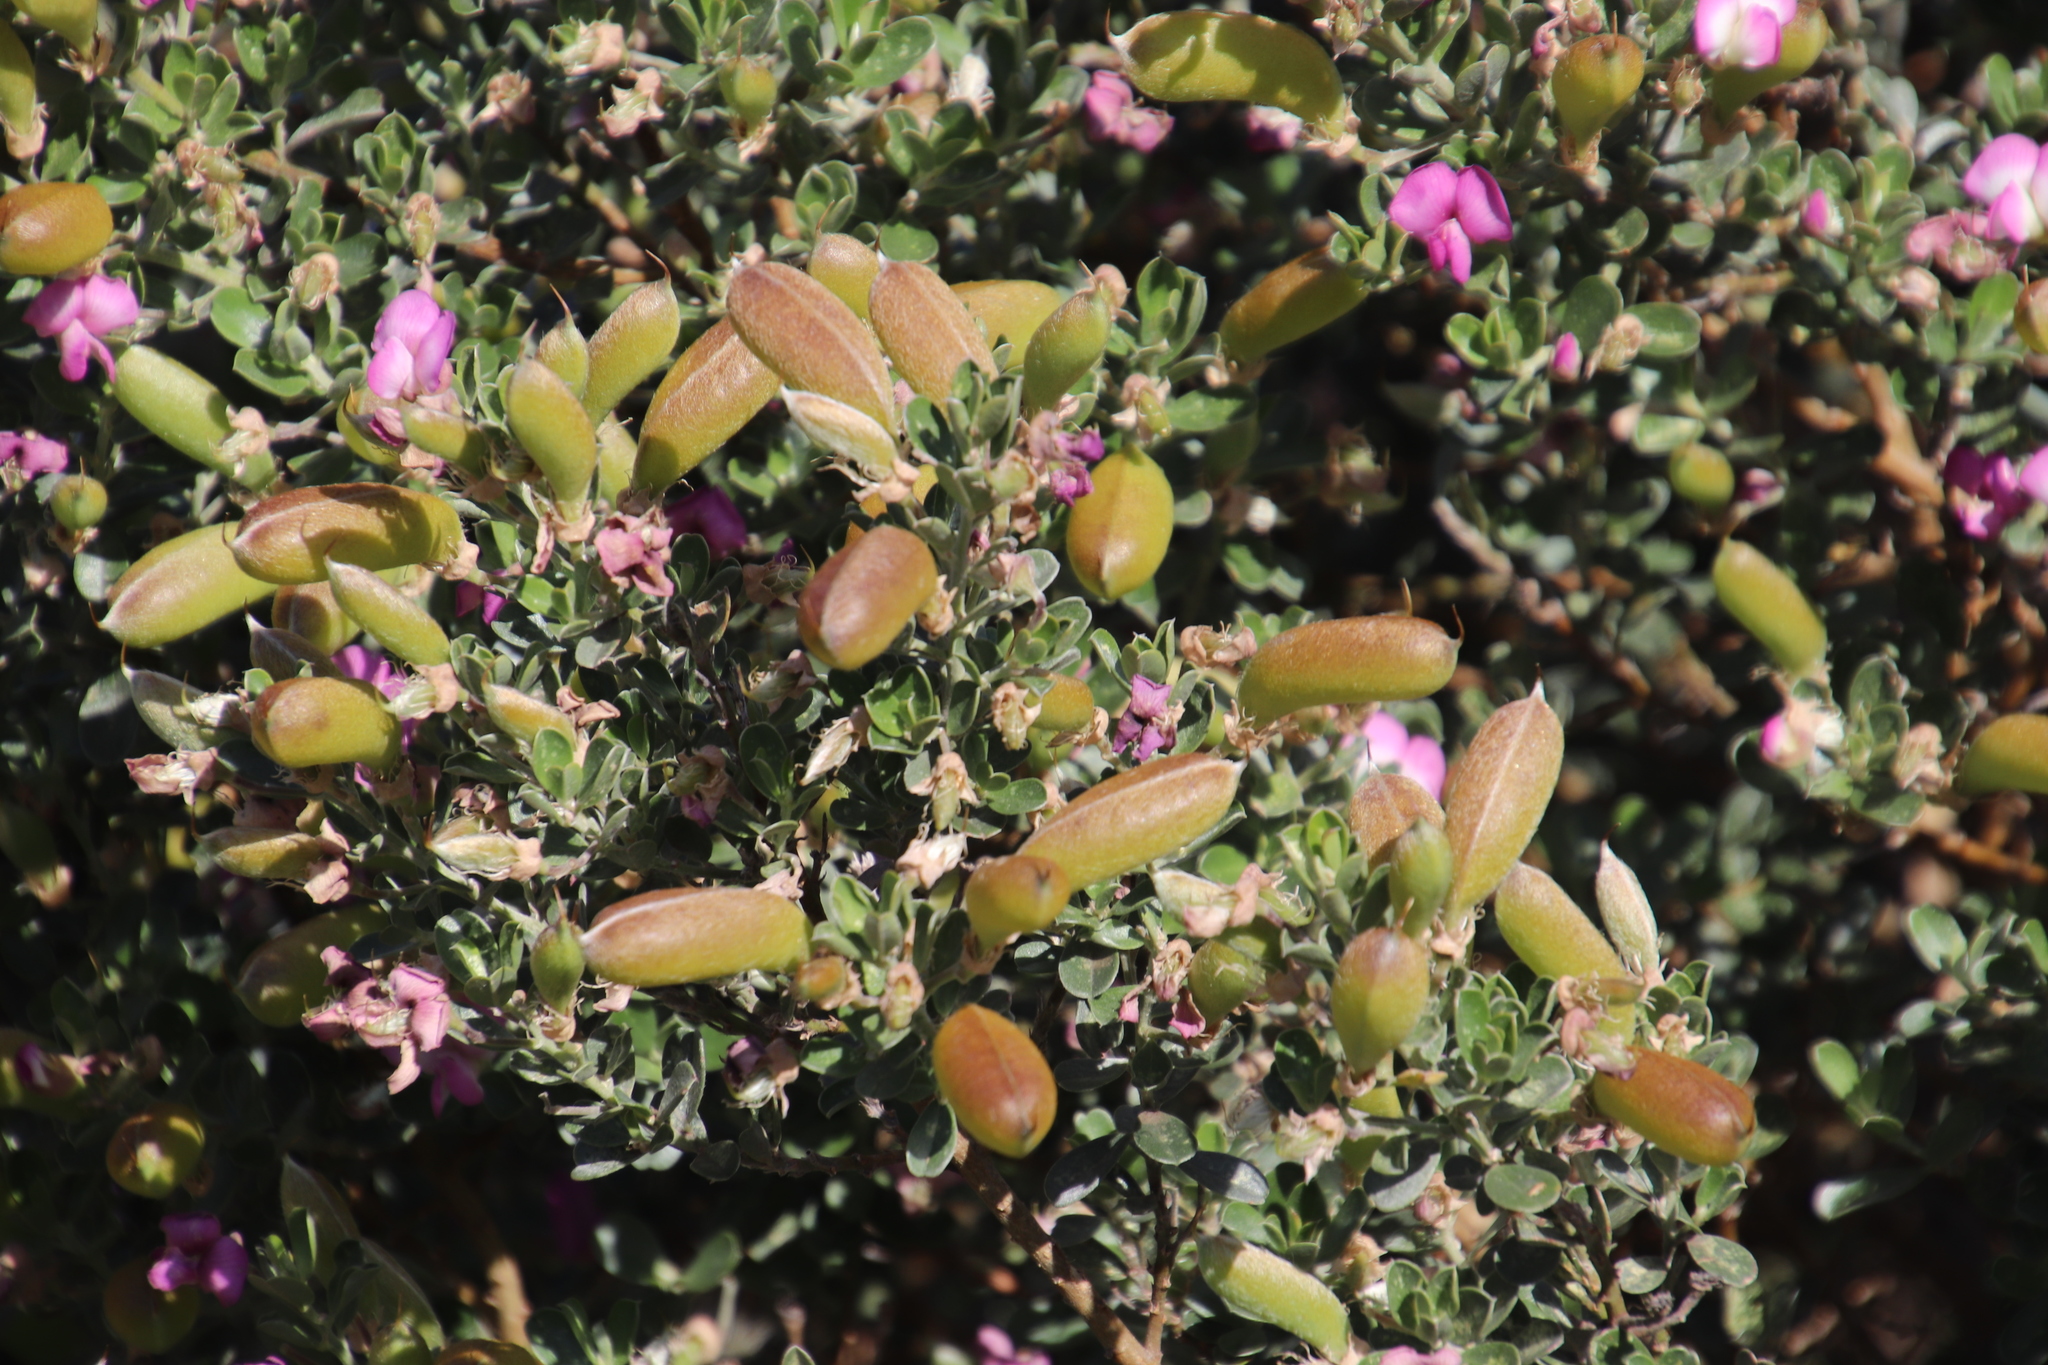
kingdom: Plantae
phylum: Tracheophyta
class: Magnoliopsida
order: Fabales
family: Fabaceae
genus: Podalyria
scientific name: Podalyria myrtillifolia
